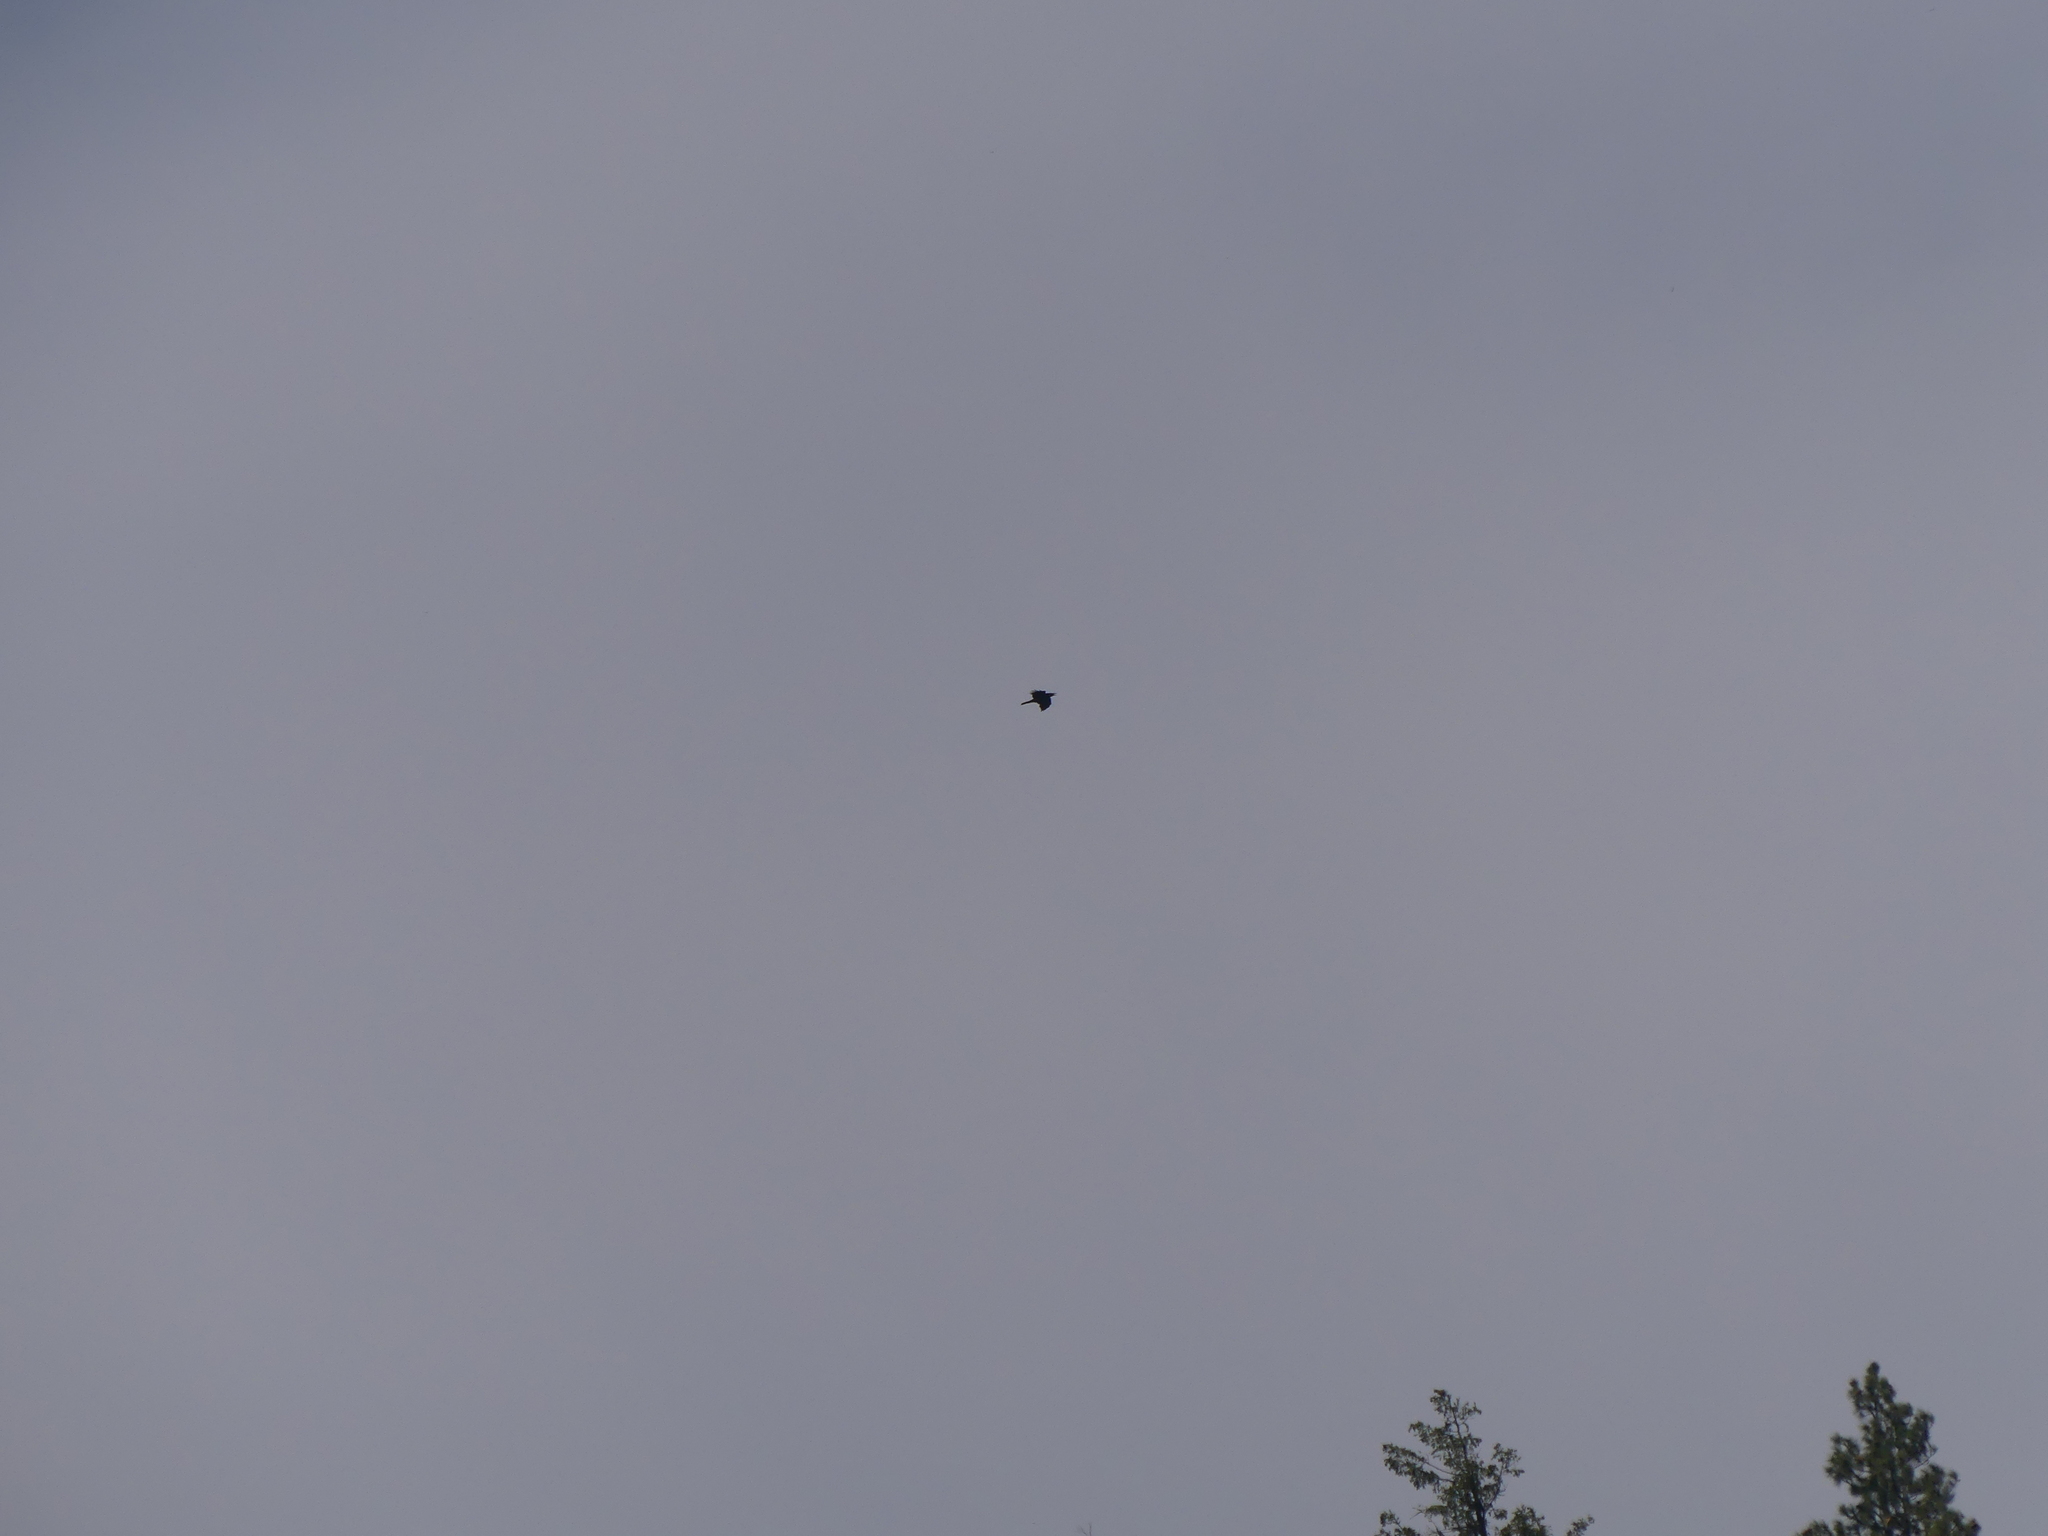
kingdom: Animalia
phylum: Chordata
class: Aves
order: Passeriformes
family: Corvidae
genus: Corvus
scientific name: Corvus corax
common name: Common raven
